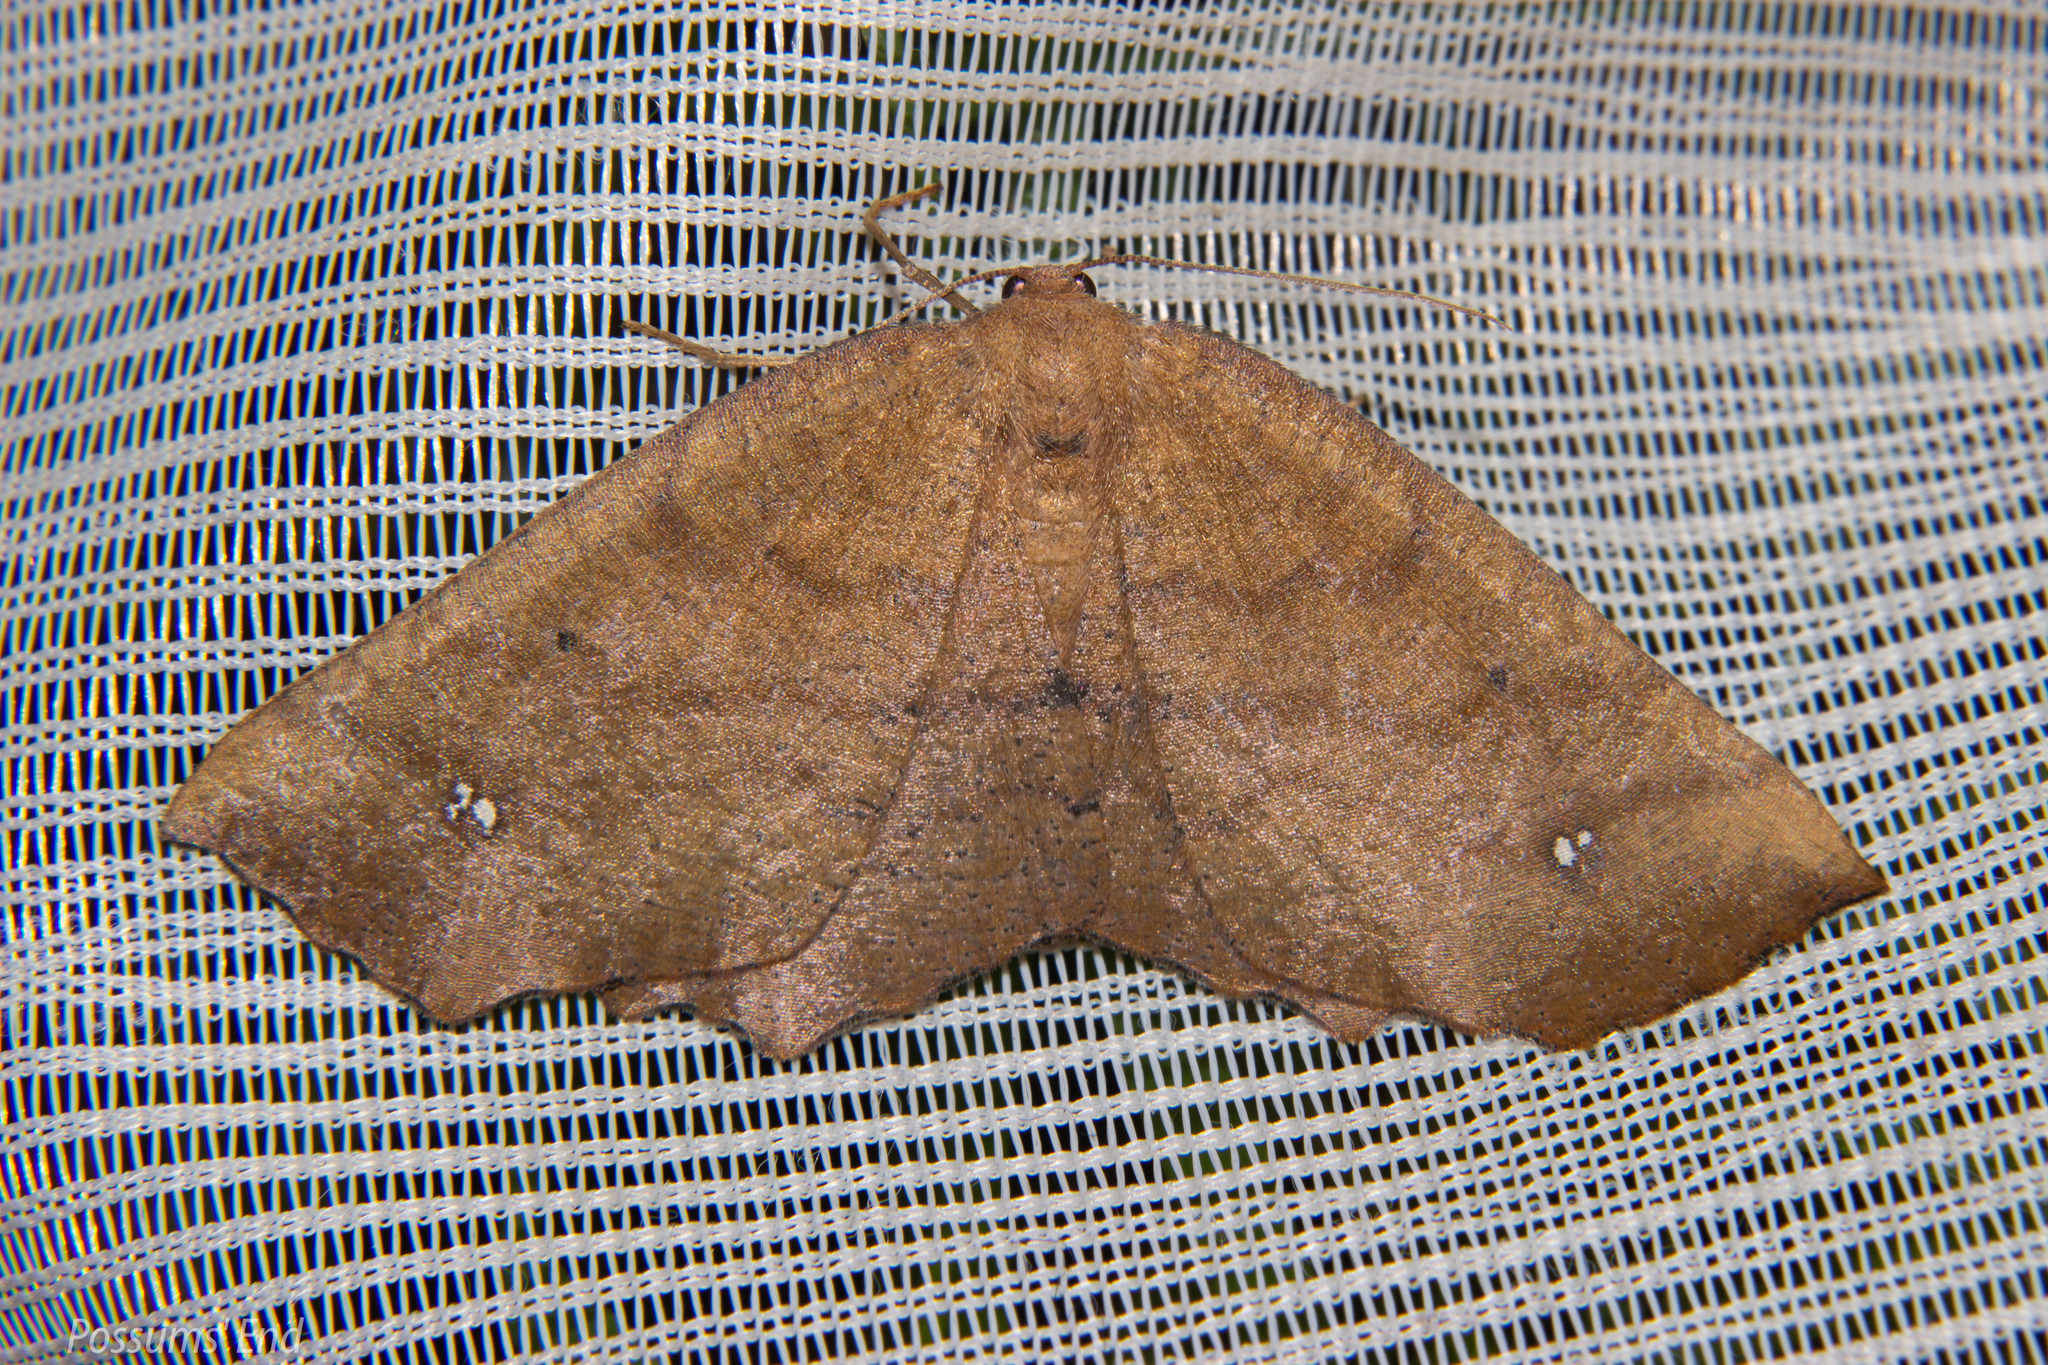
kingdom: Animalia
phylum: Arthropoda
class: Insecta
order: Lepidoptera
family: Geometridae
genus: Xyridacma
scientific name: Xyridacma ustaria
